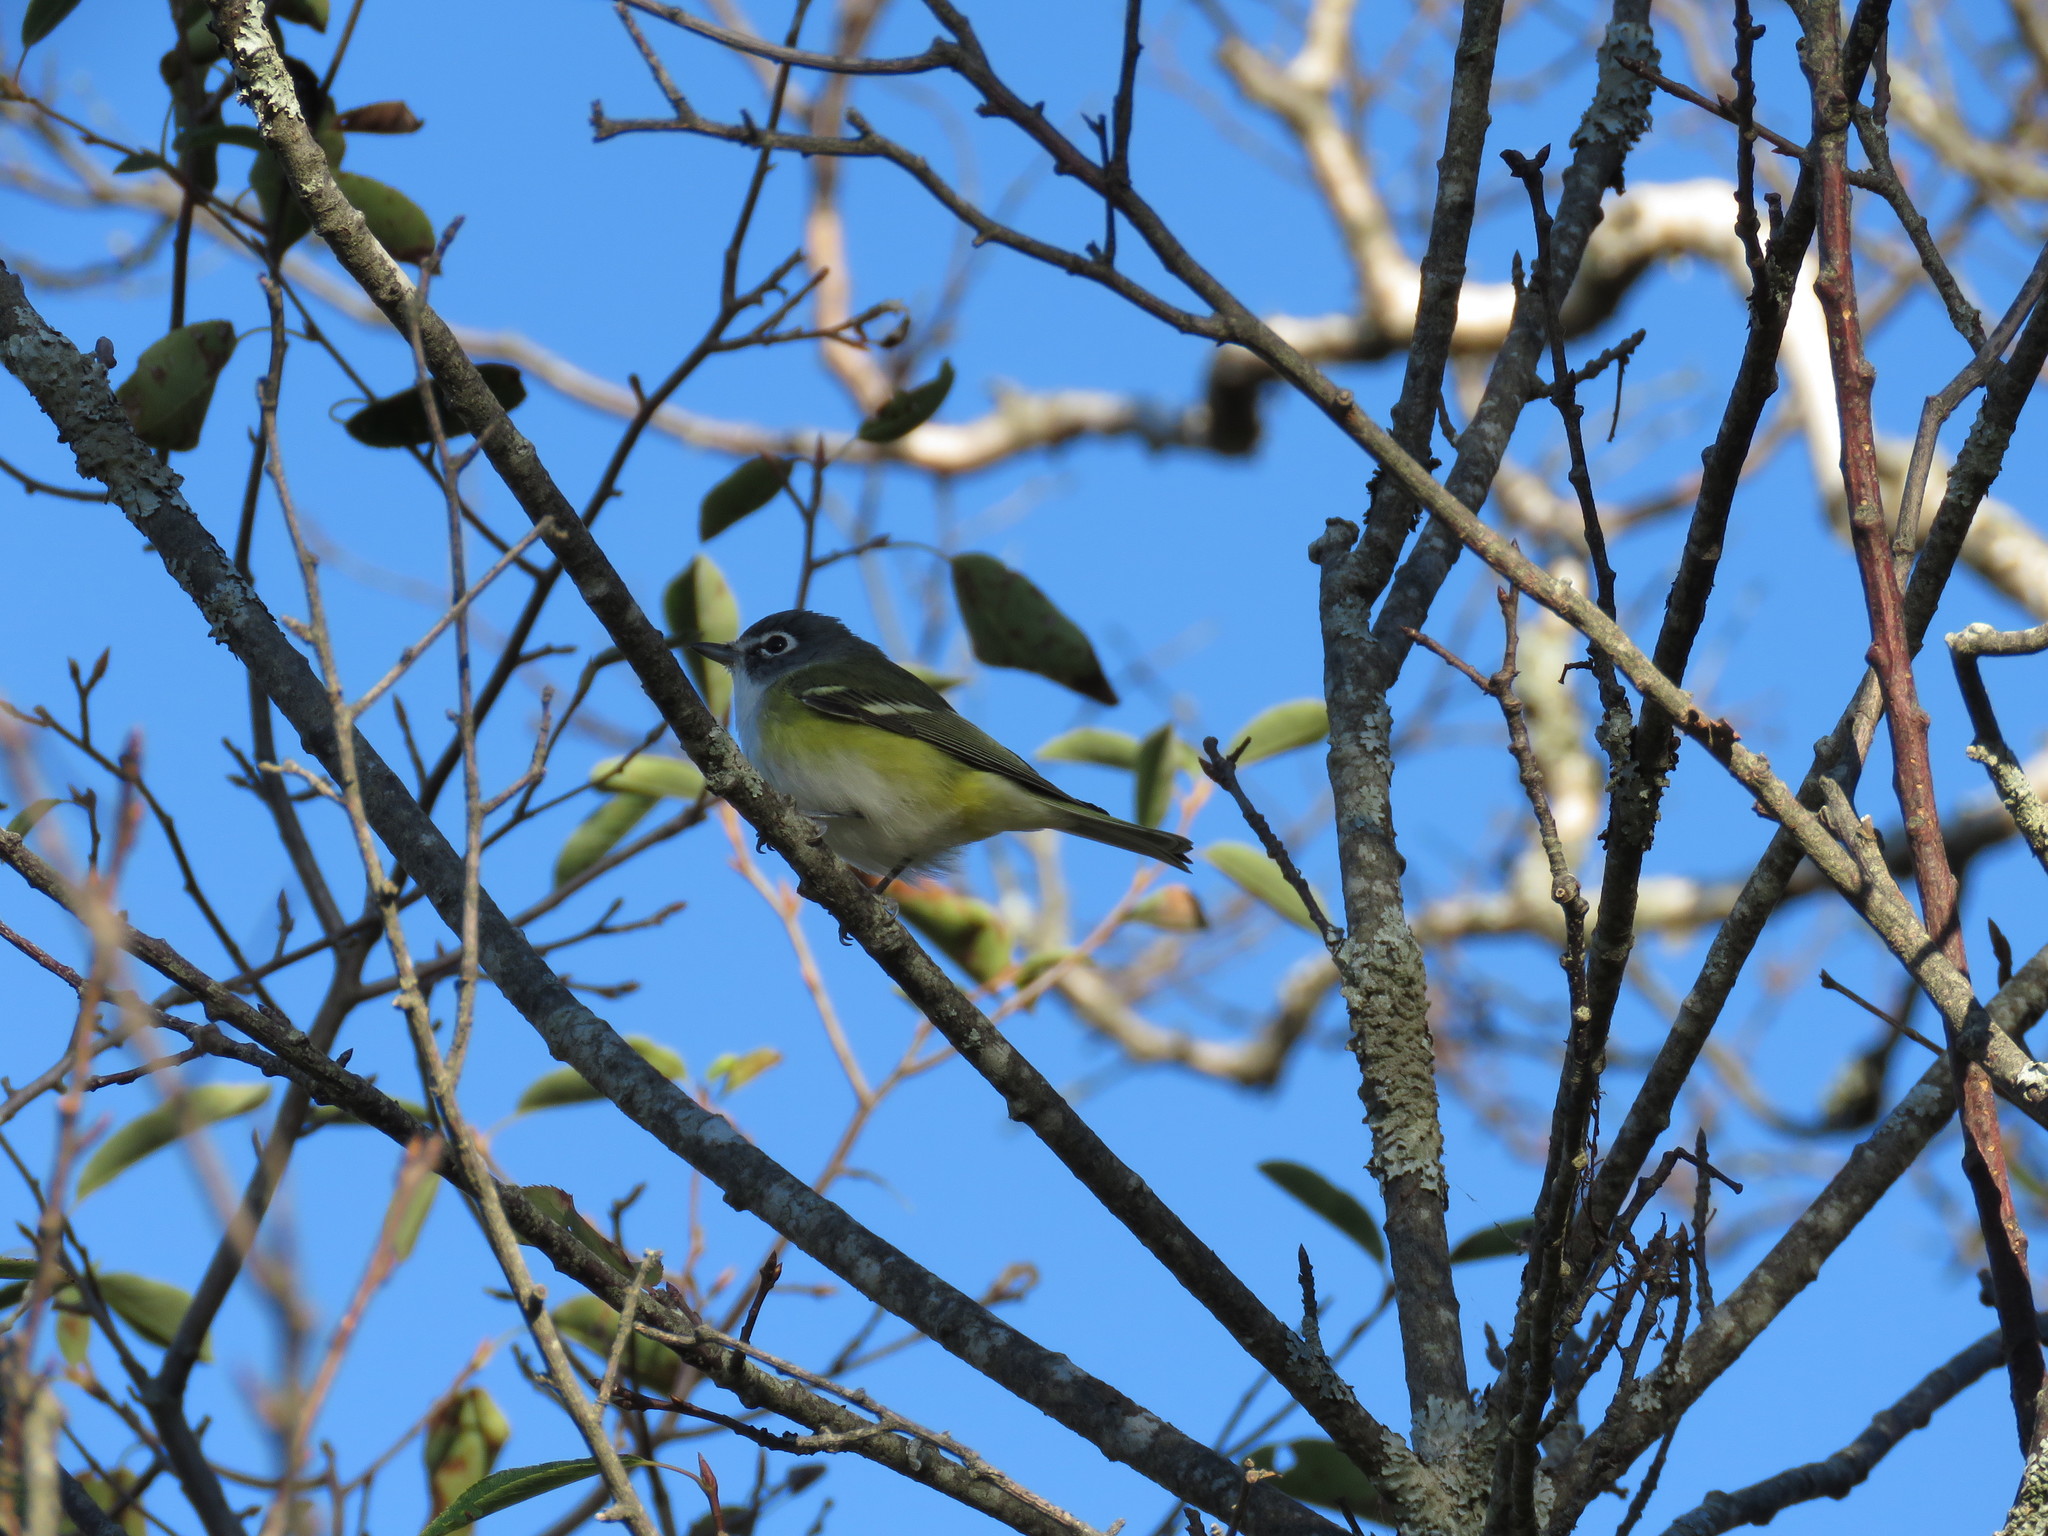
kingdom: Animalia
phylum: Chordata
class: Aves
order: Passeriformes
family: Vireonidae
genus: Vireo
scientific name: Vireo solitarius
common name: Blue-headed vireo
